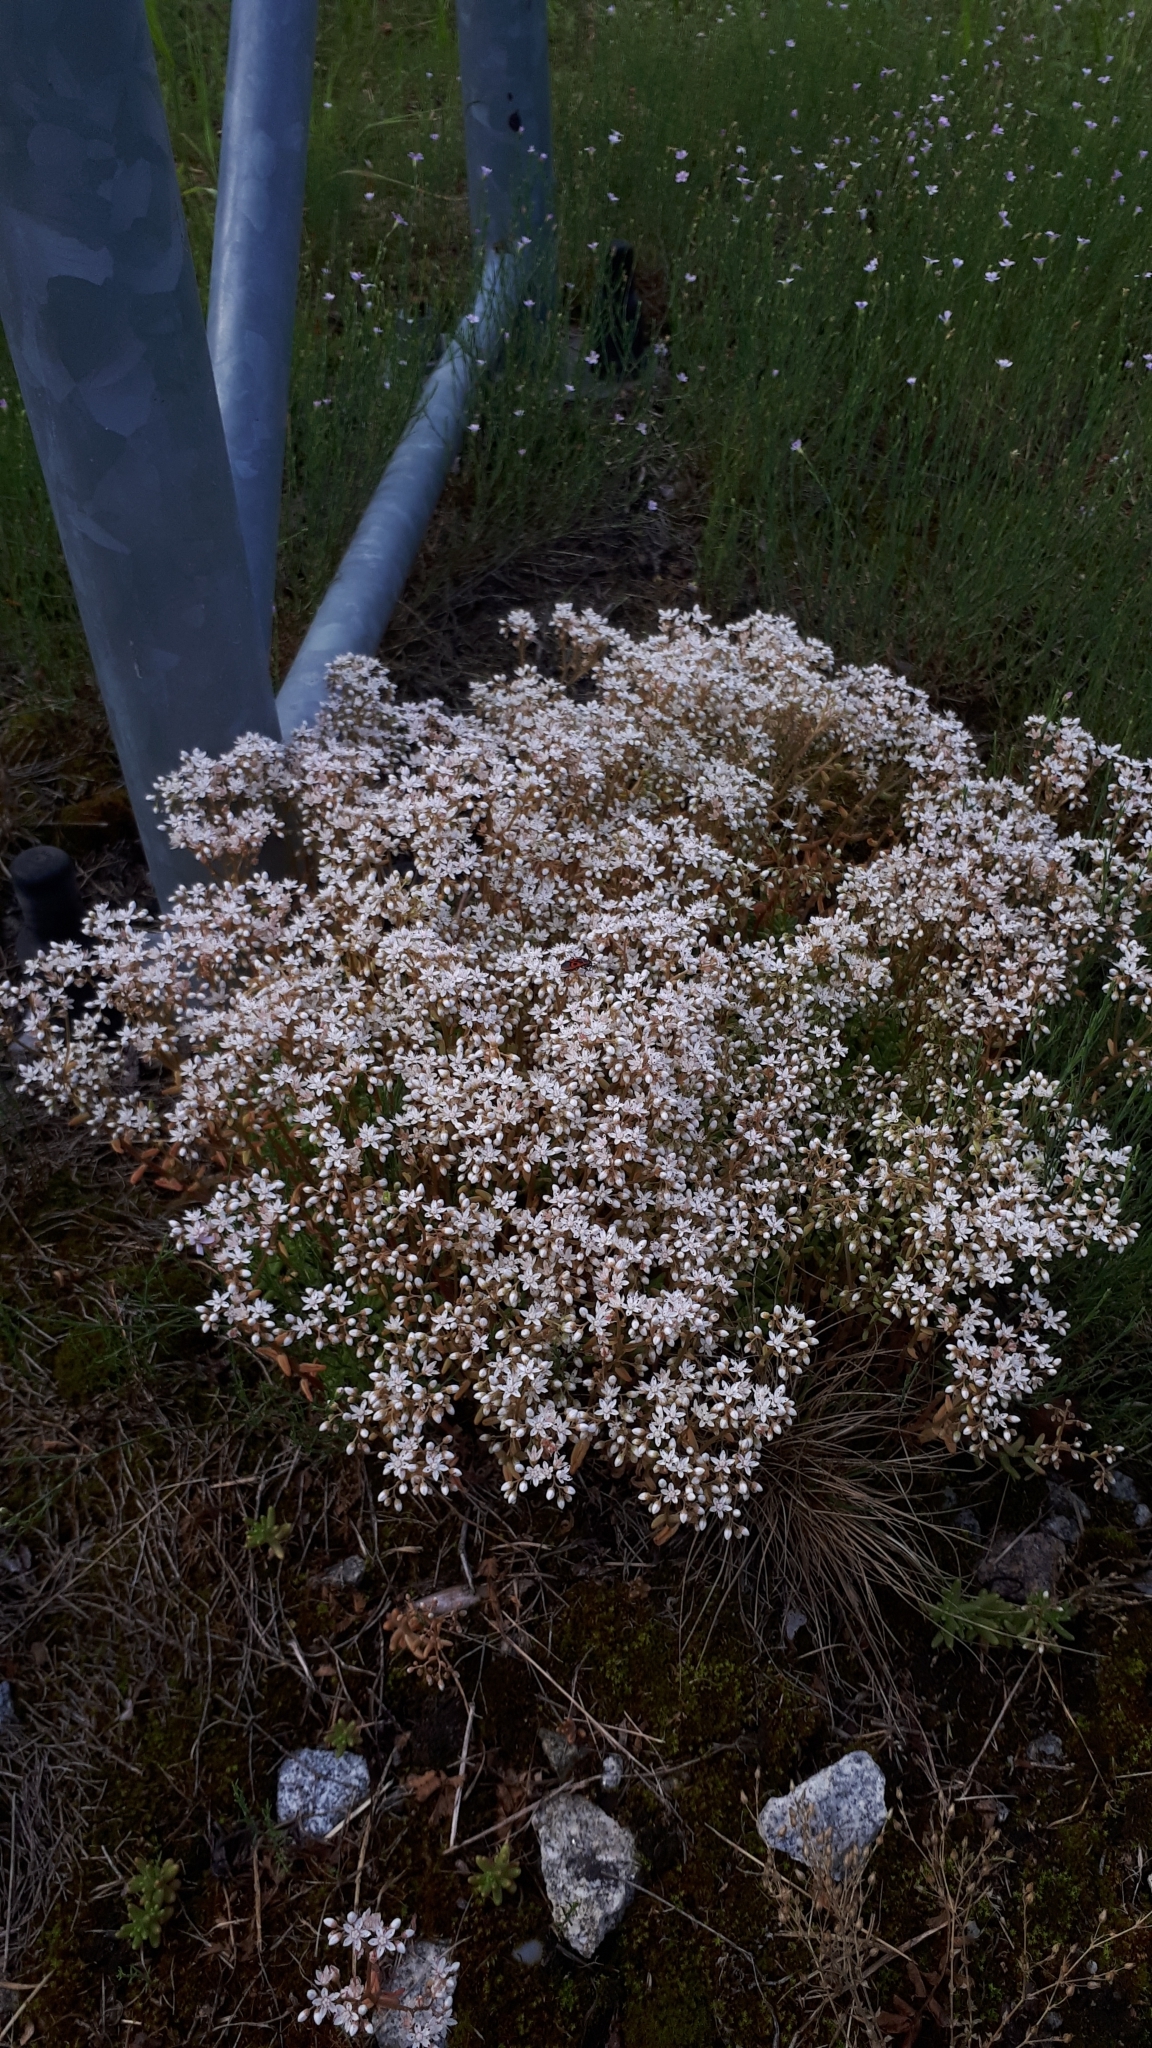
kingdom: Plantae
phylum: Tracheophyta
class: Magnoliopsida
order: Saxifragales
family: Crassulaceae
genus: Sedum
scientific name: Sedum album
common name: White stonecrop
